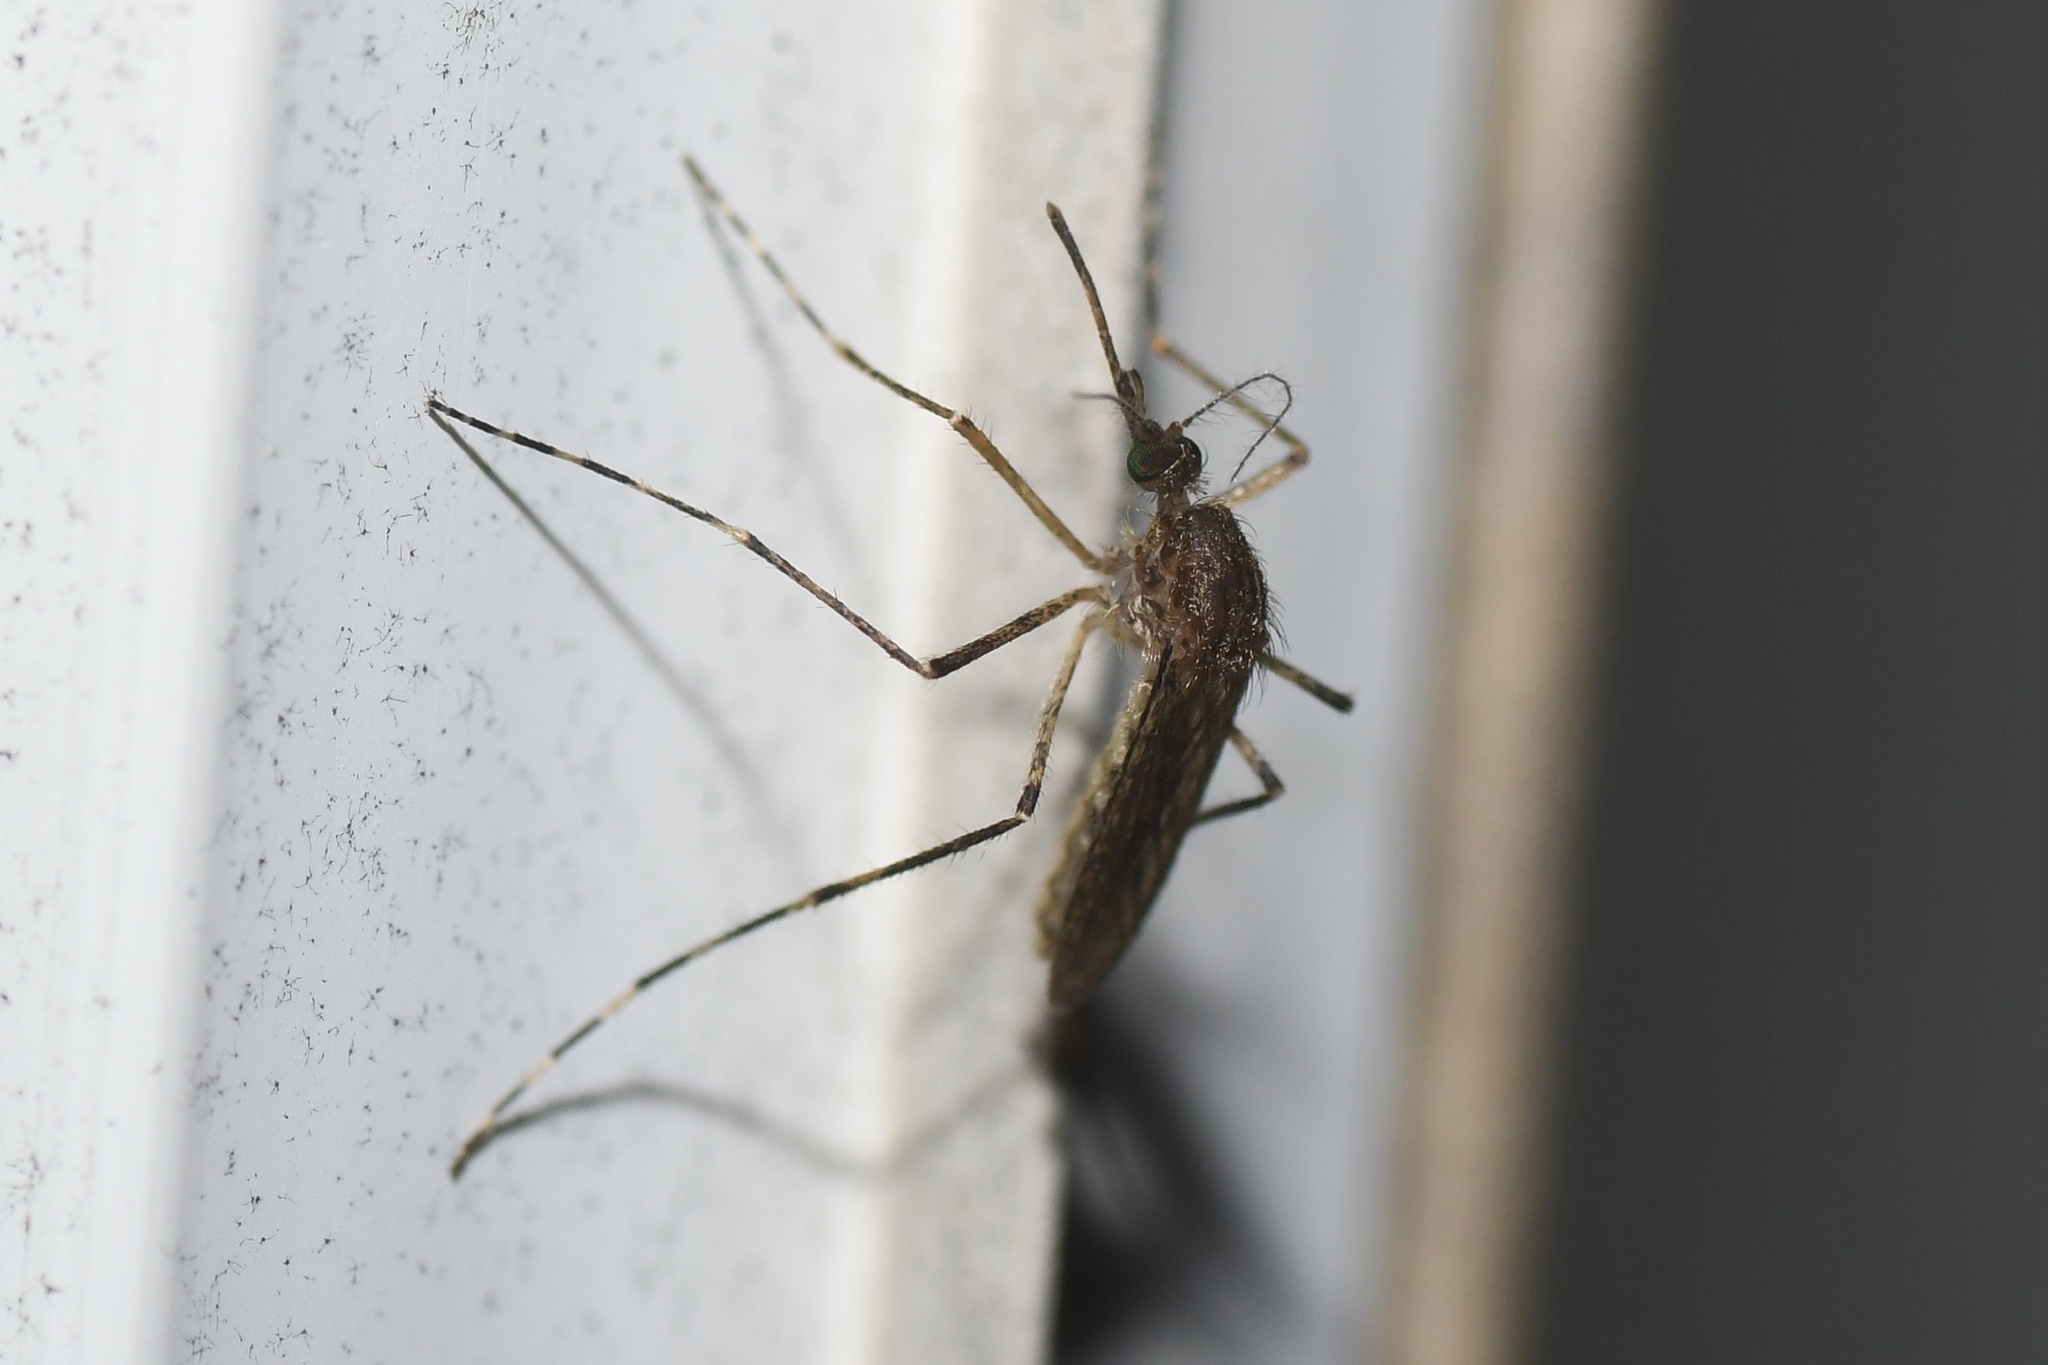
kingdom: Animalia
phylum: Arthropoda
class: Insecta
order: Diptera
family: Culicidae
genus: Coquillettidia
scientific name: Coquillettidia perturbans
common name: Cattail mosquito
